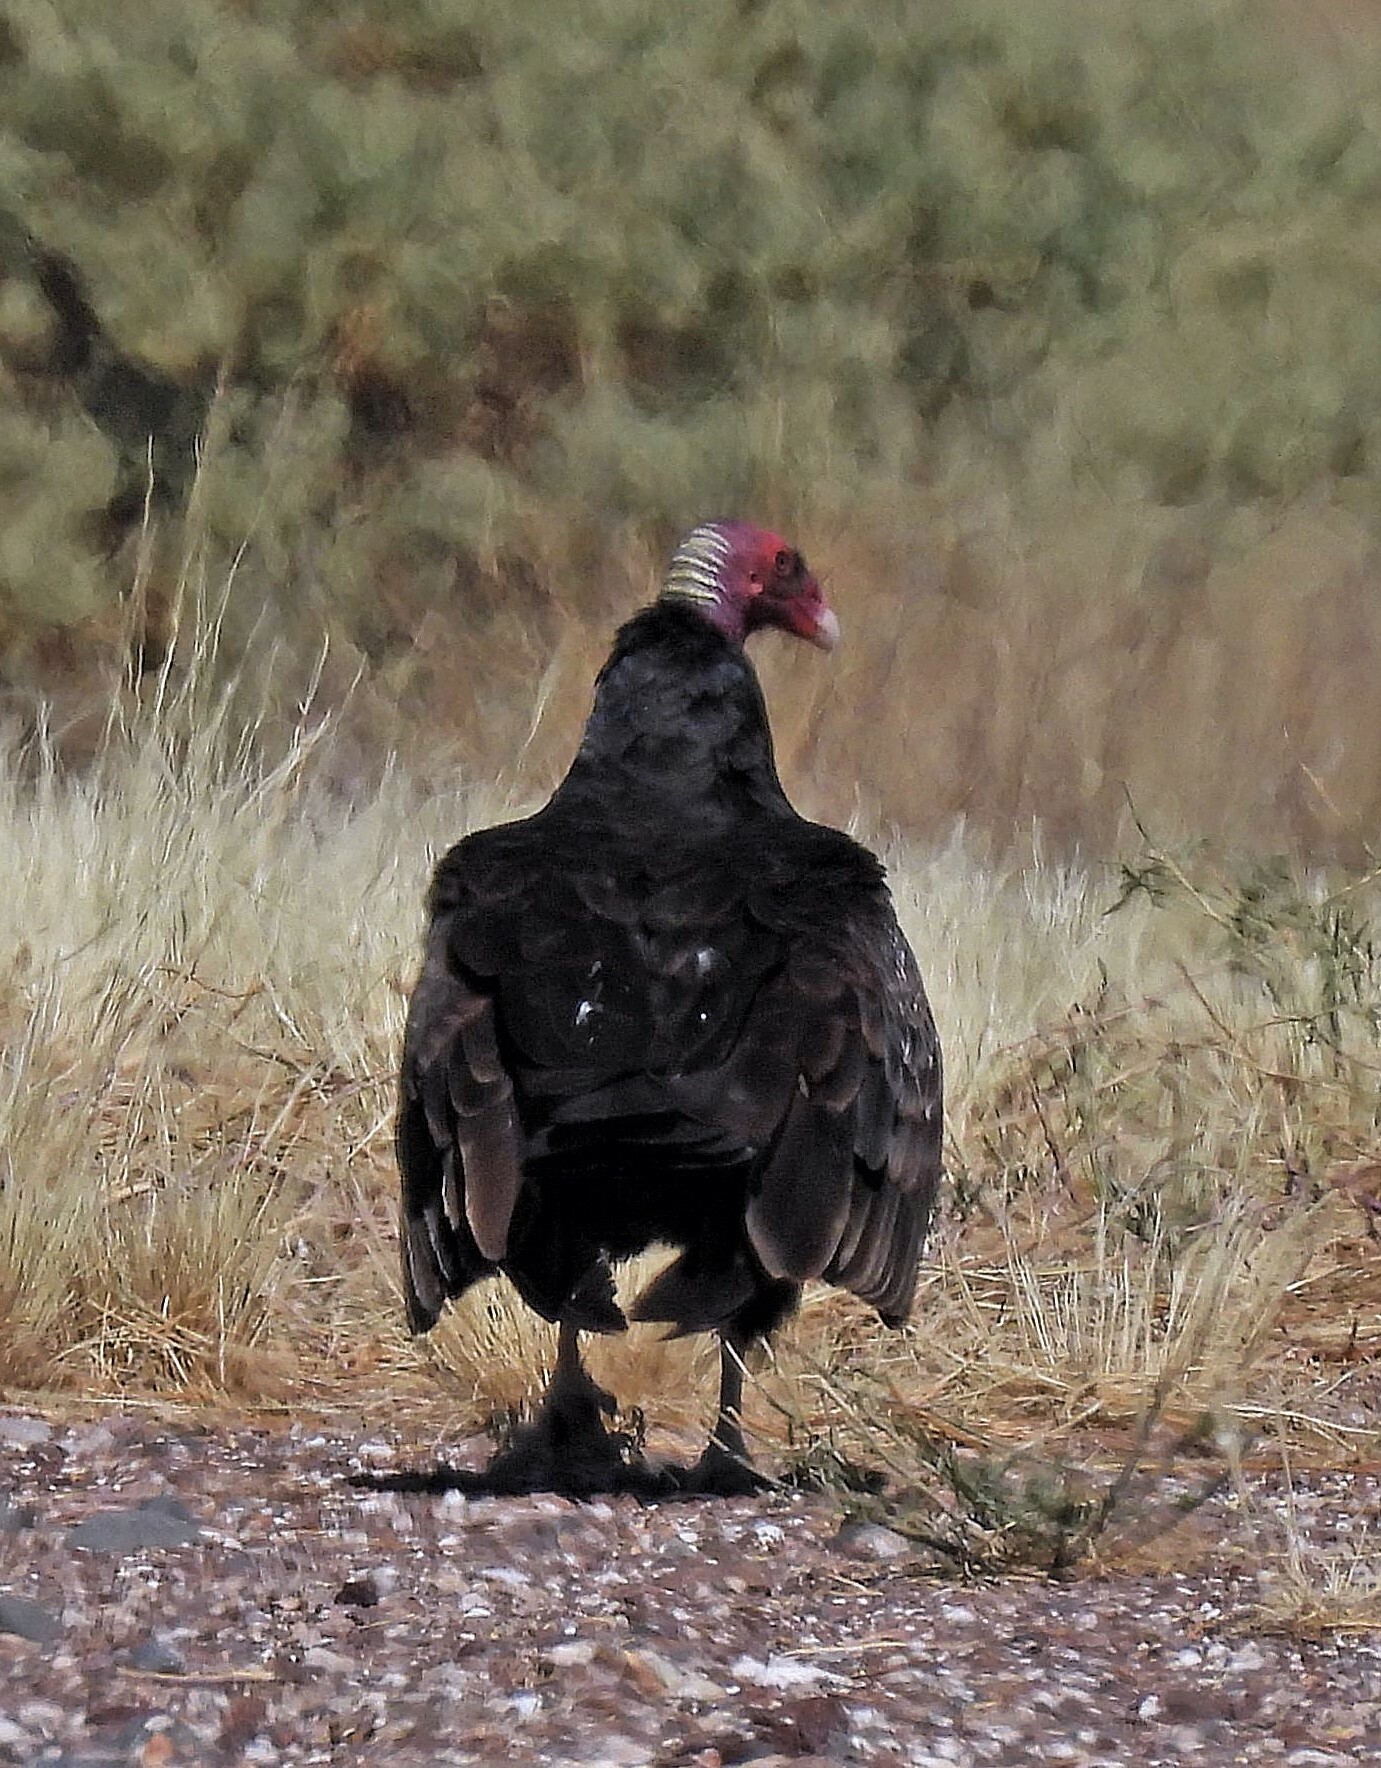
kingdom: Animalia
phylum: Chordata
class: Aves
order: Accipitriformes
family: Cathartidae
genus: Cathartes
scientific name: Cathartes aura
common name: Turkey vulture
